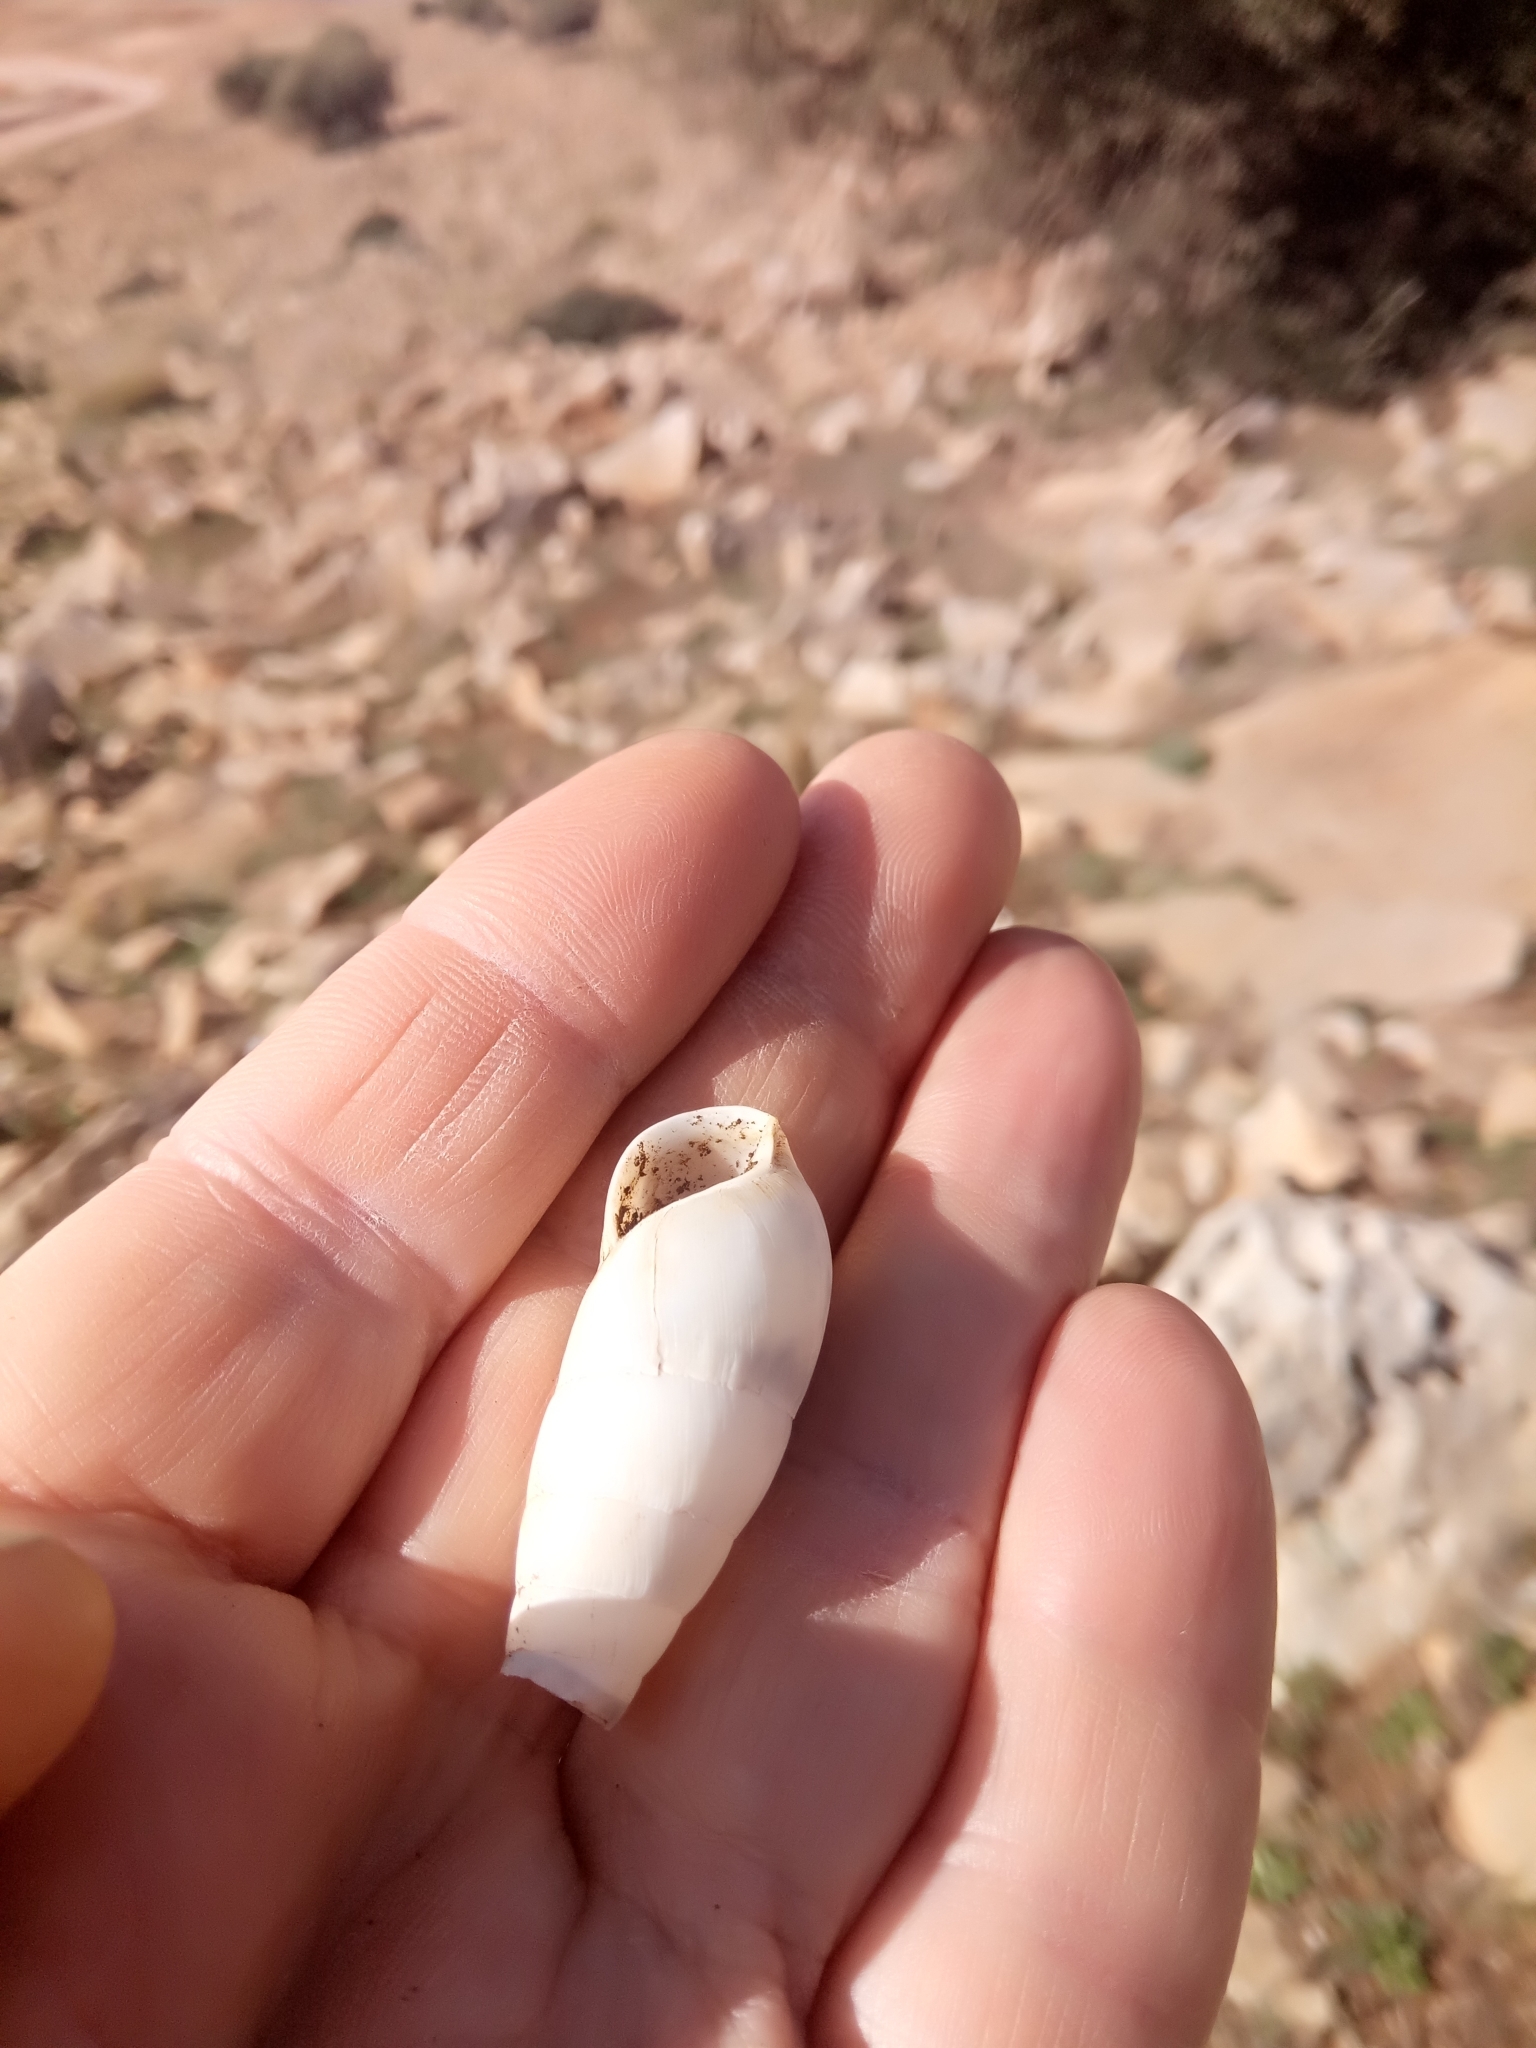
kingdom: Animalia
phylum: Mollusca
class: Gastropoda
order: Stylommatophora
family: Achatinidae
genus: Rumina
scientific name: Rumina decollata
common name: Decollate snail
